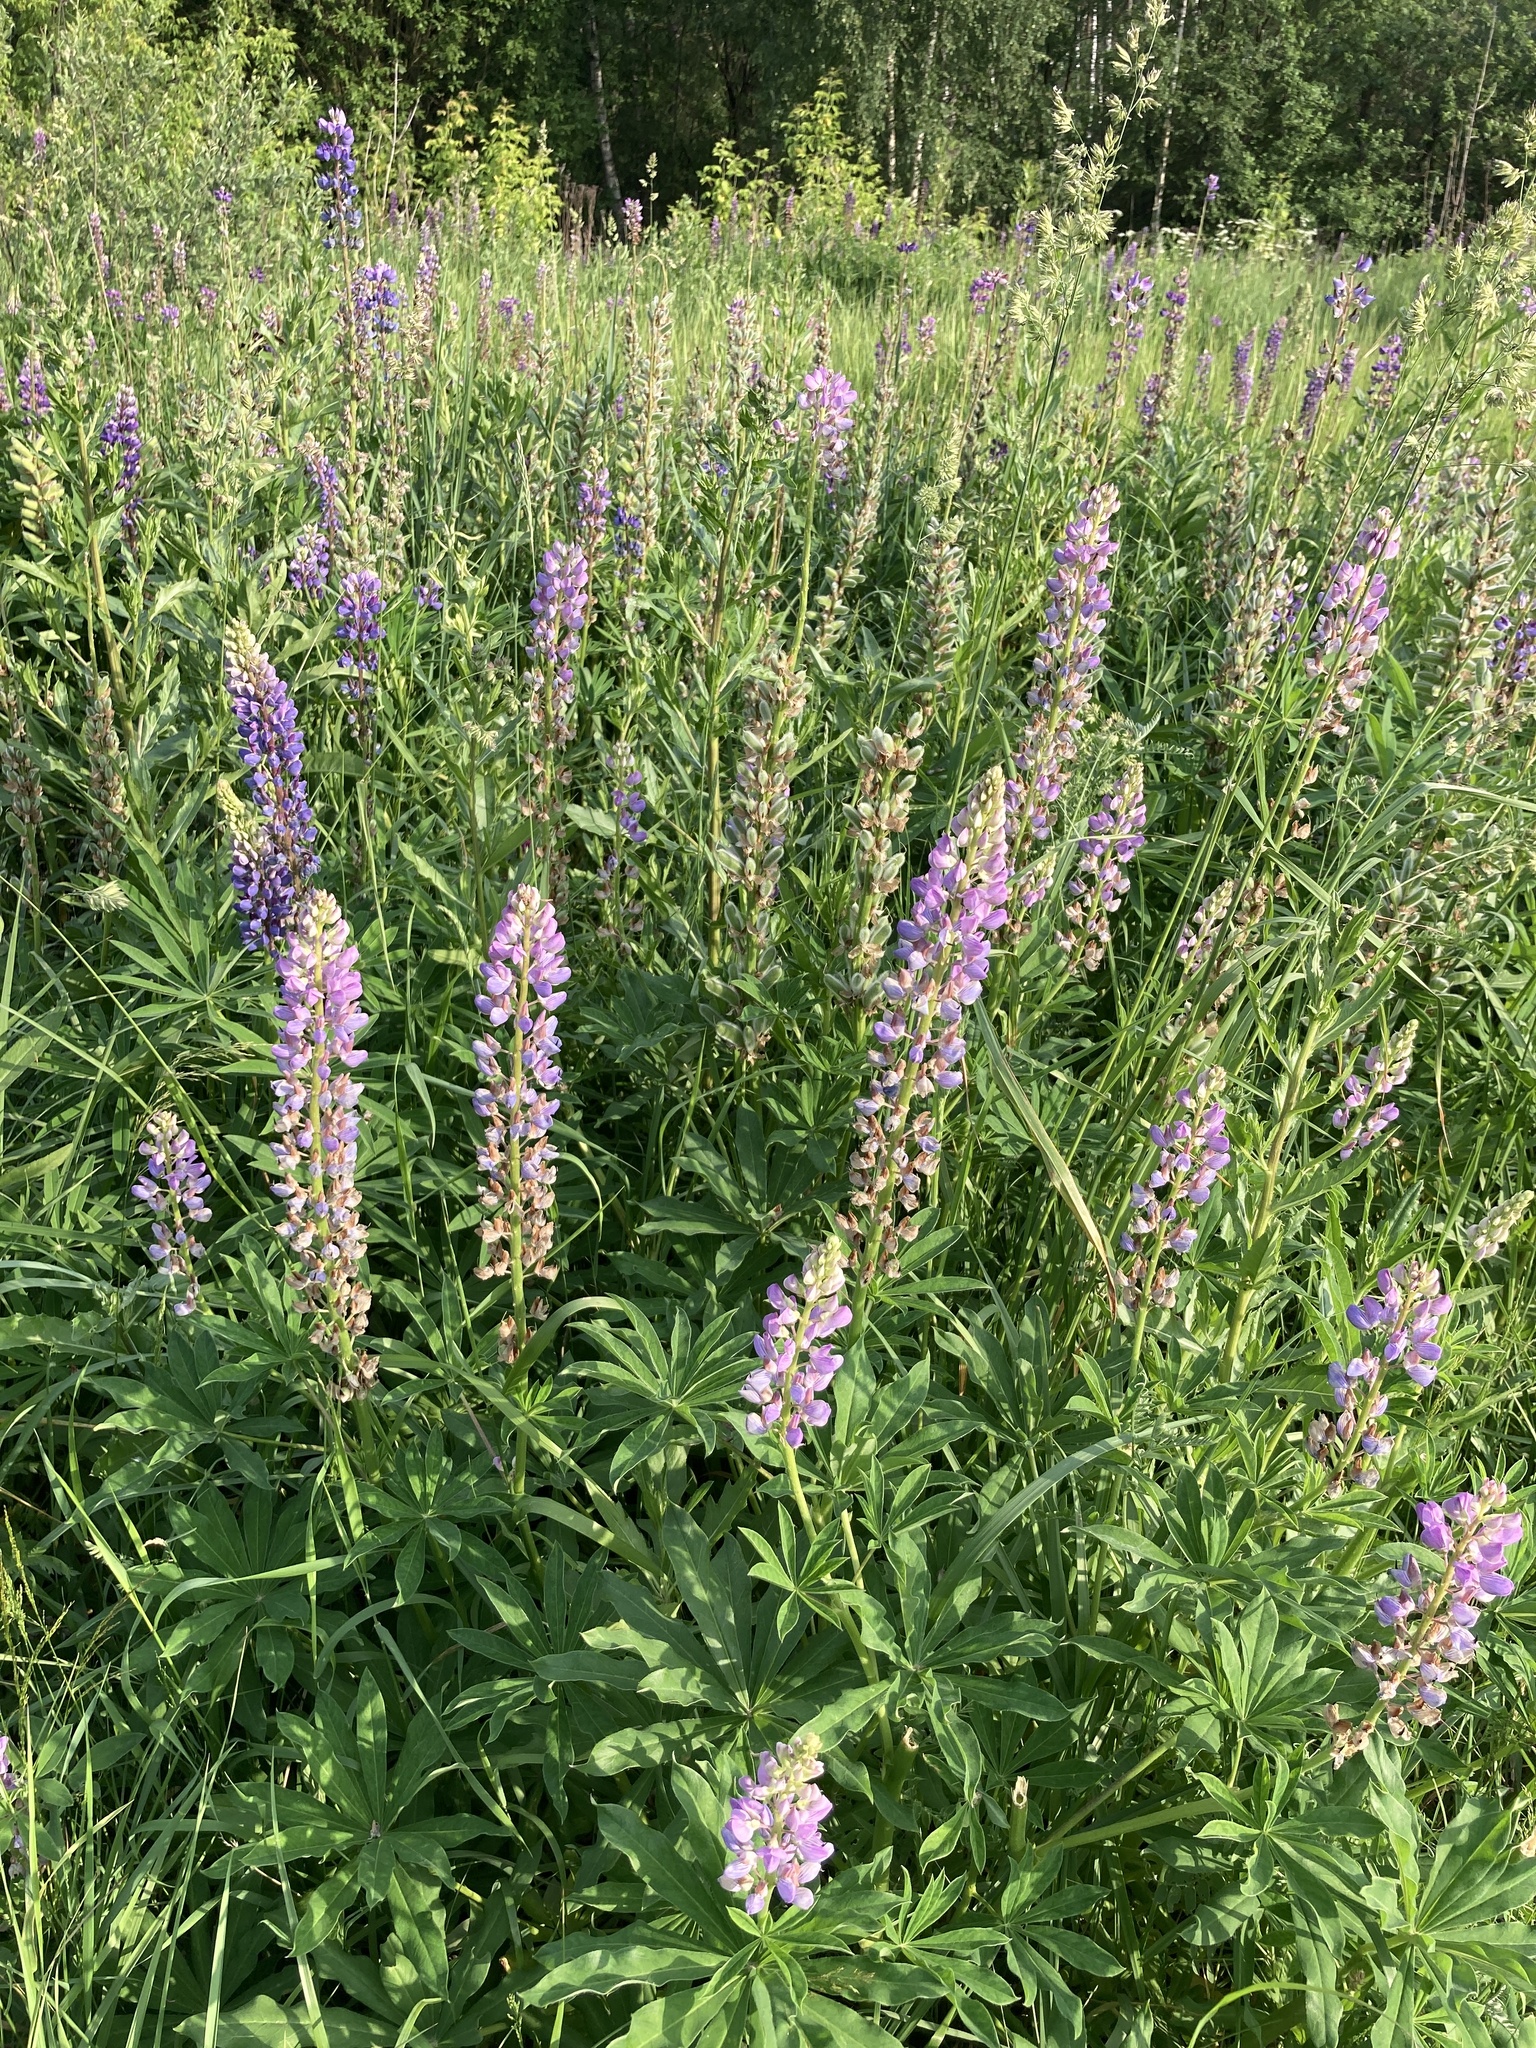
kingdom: Plantae
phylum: Tracheophyta
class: Magnoliopsida
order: Fabales
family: Fabaceae
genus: Lupinus
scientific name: Lupinus polyphyllus
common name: Garden lupin
